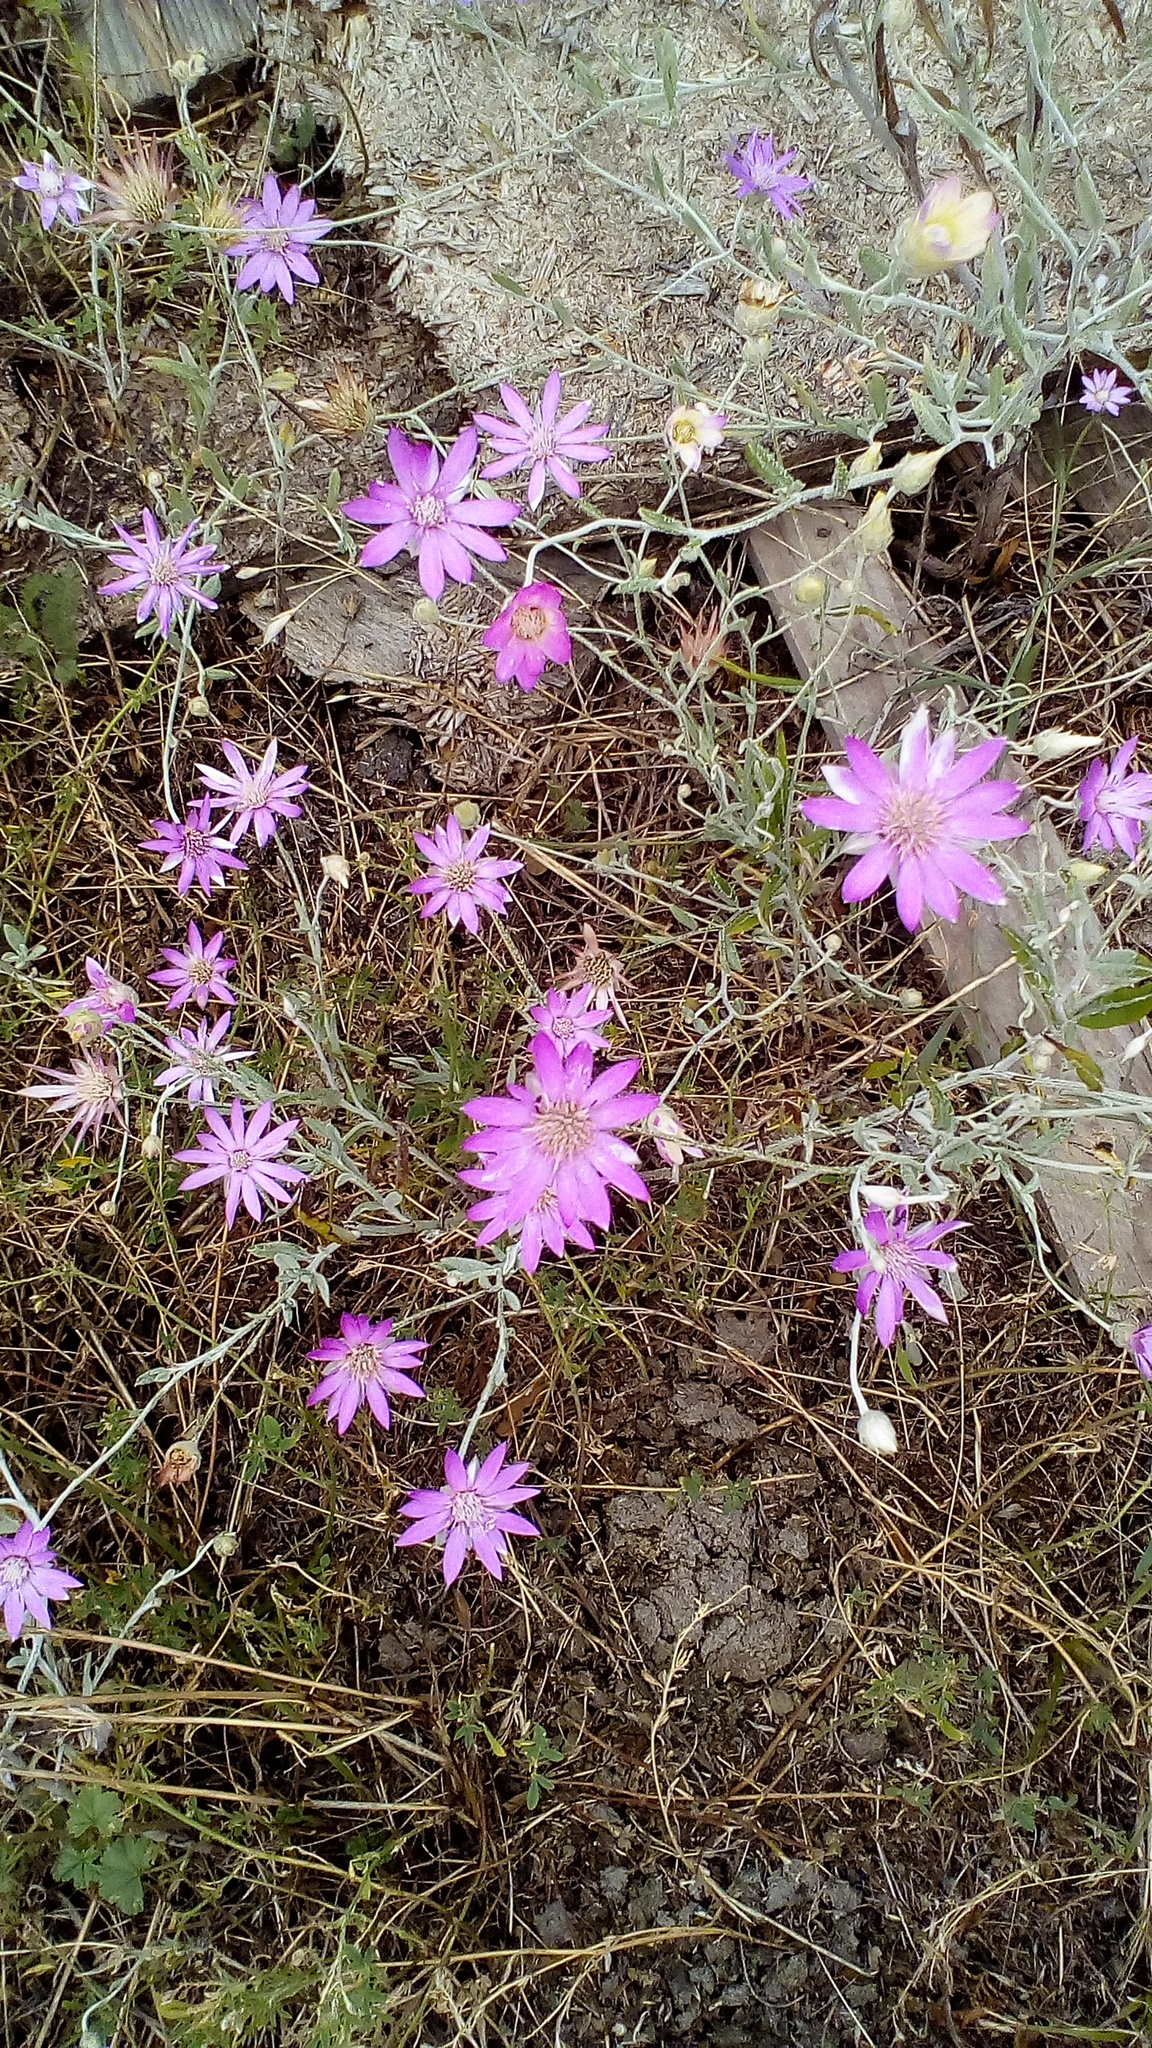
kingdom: Plantae
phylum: Tracheophyta
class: Magnoliopsida
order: Asterales
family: Asteraceae
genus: Xeranthemum
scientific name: Xeranthemum annuum
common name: Immortelle
